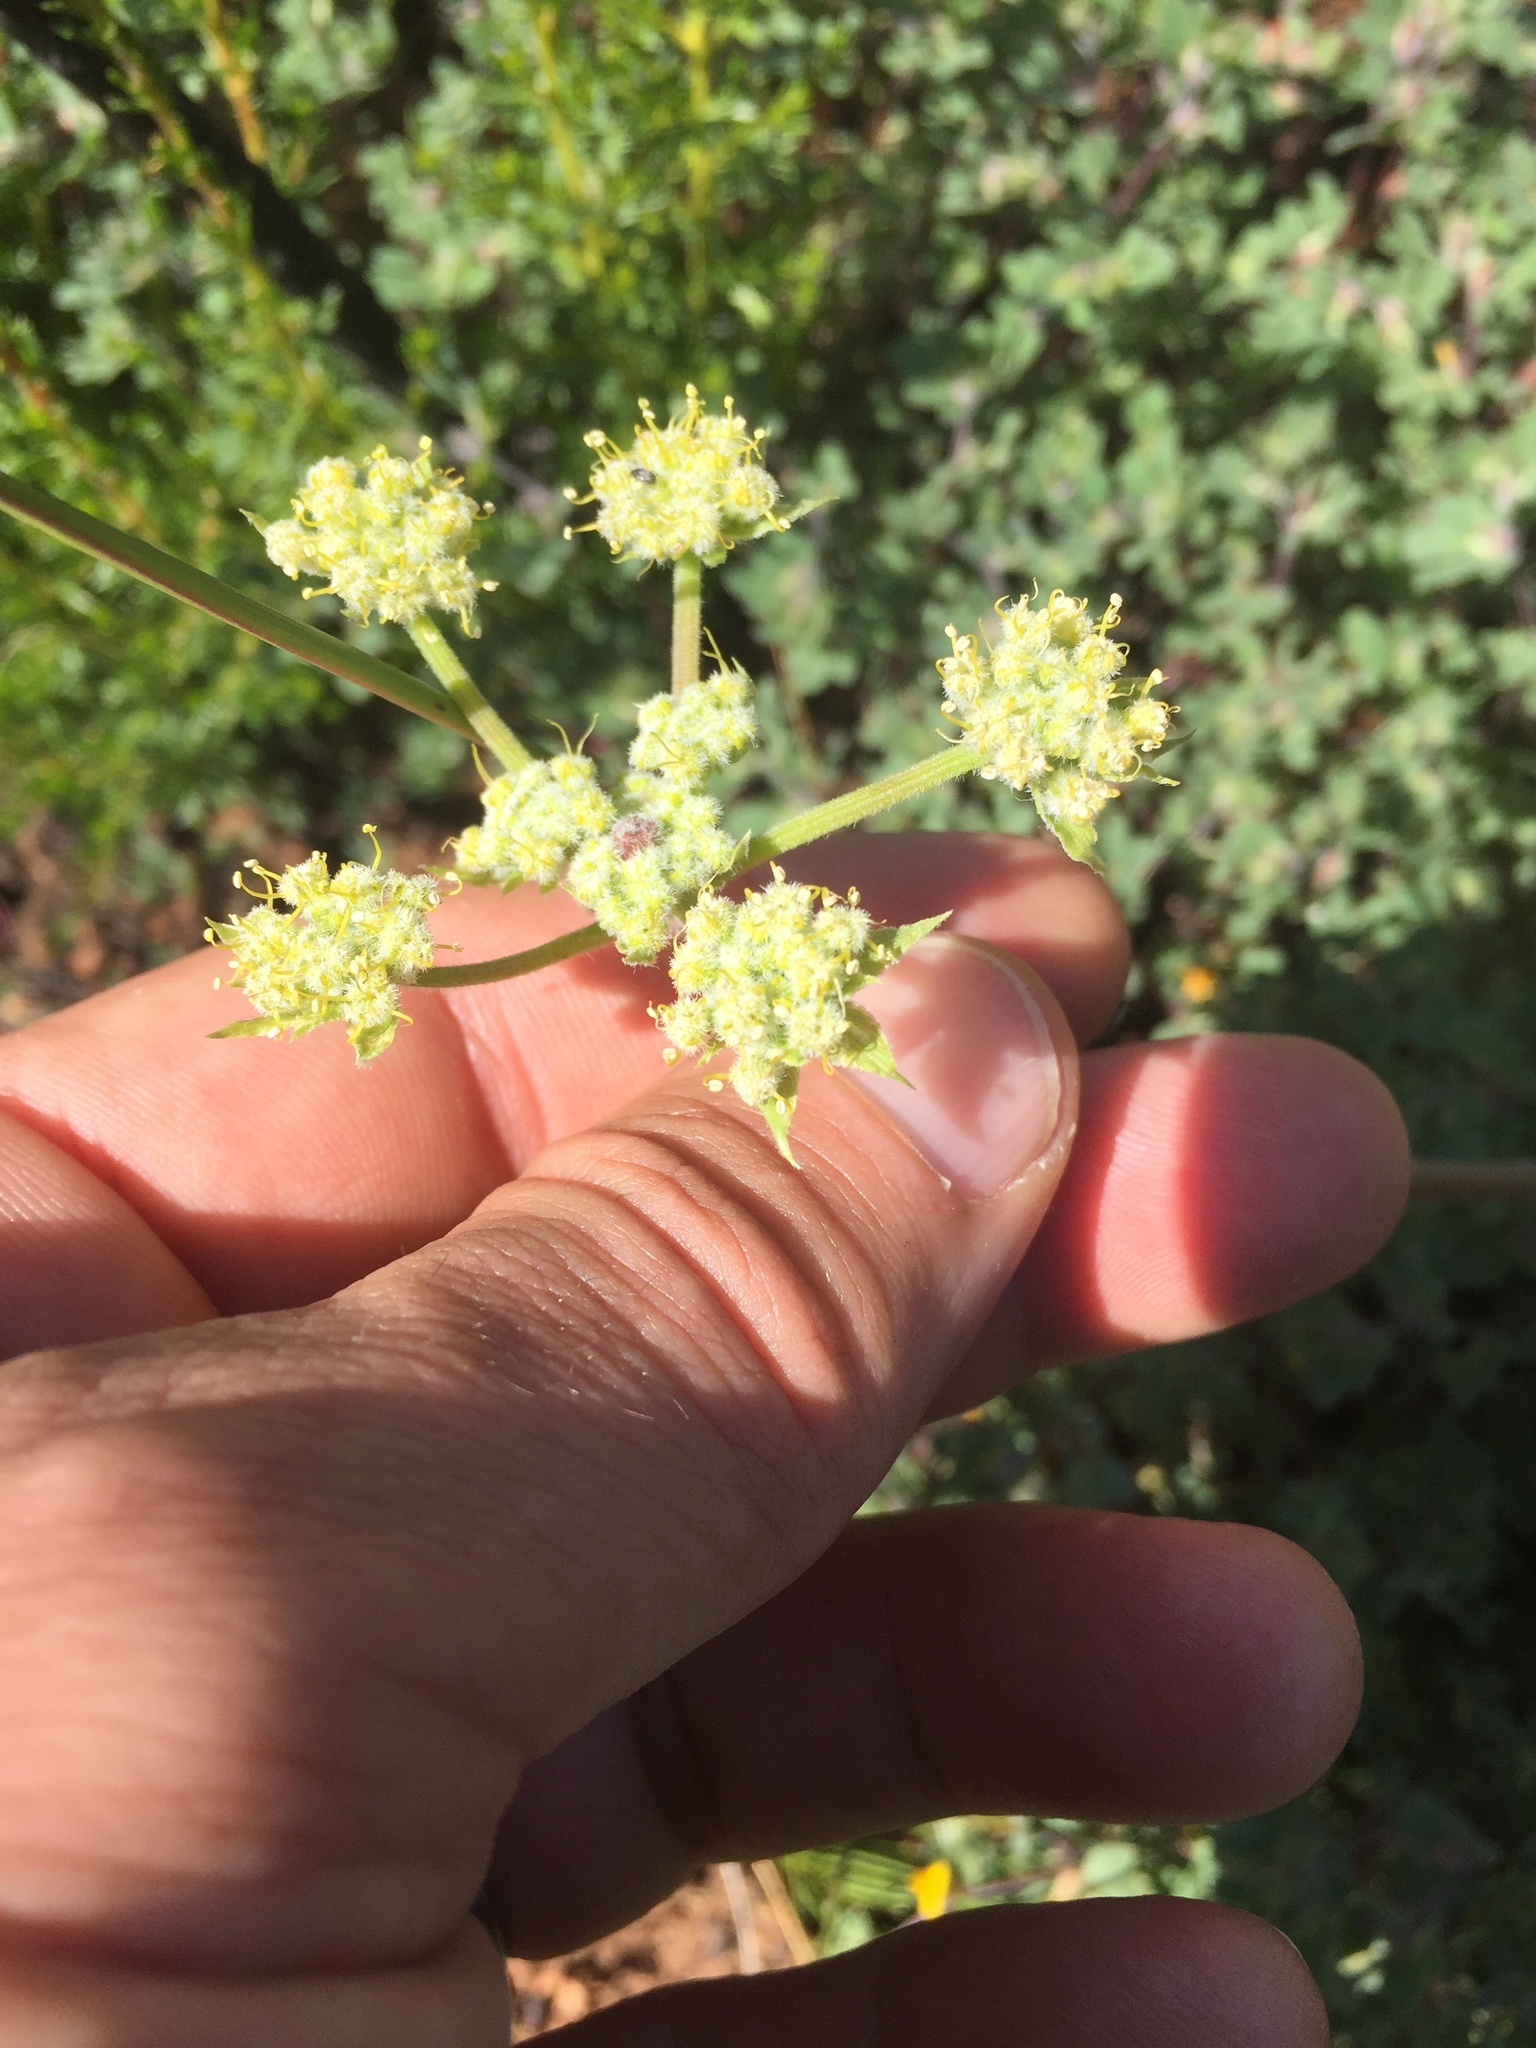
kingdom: Plantae
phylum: Tracheophyta
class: Magnoliopsida
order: Apiales
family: Apiaceae
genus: Lomatium
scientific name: Lomatium dasycarpum
